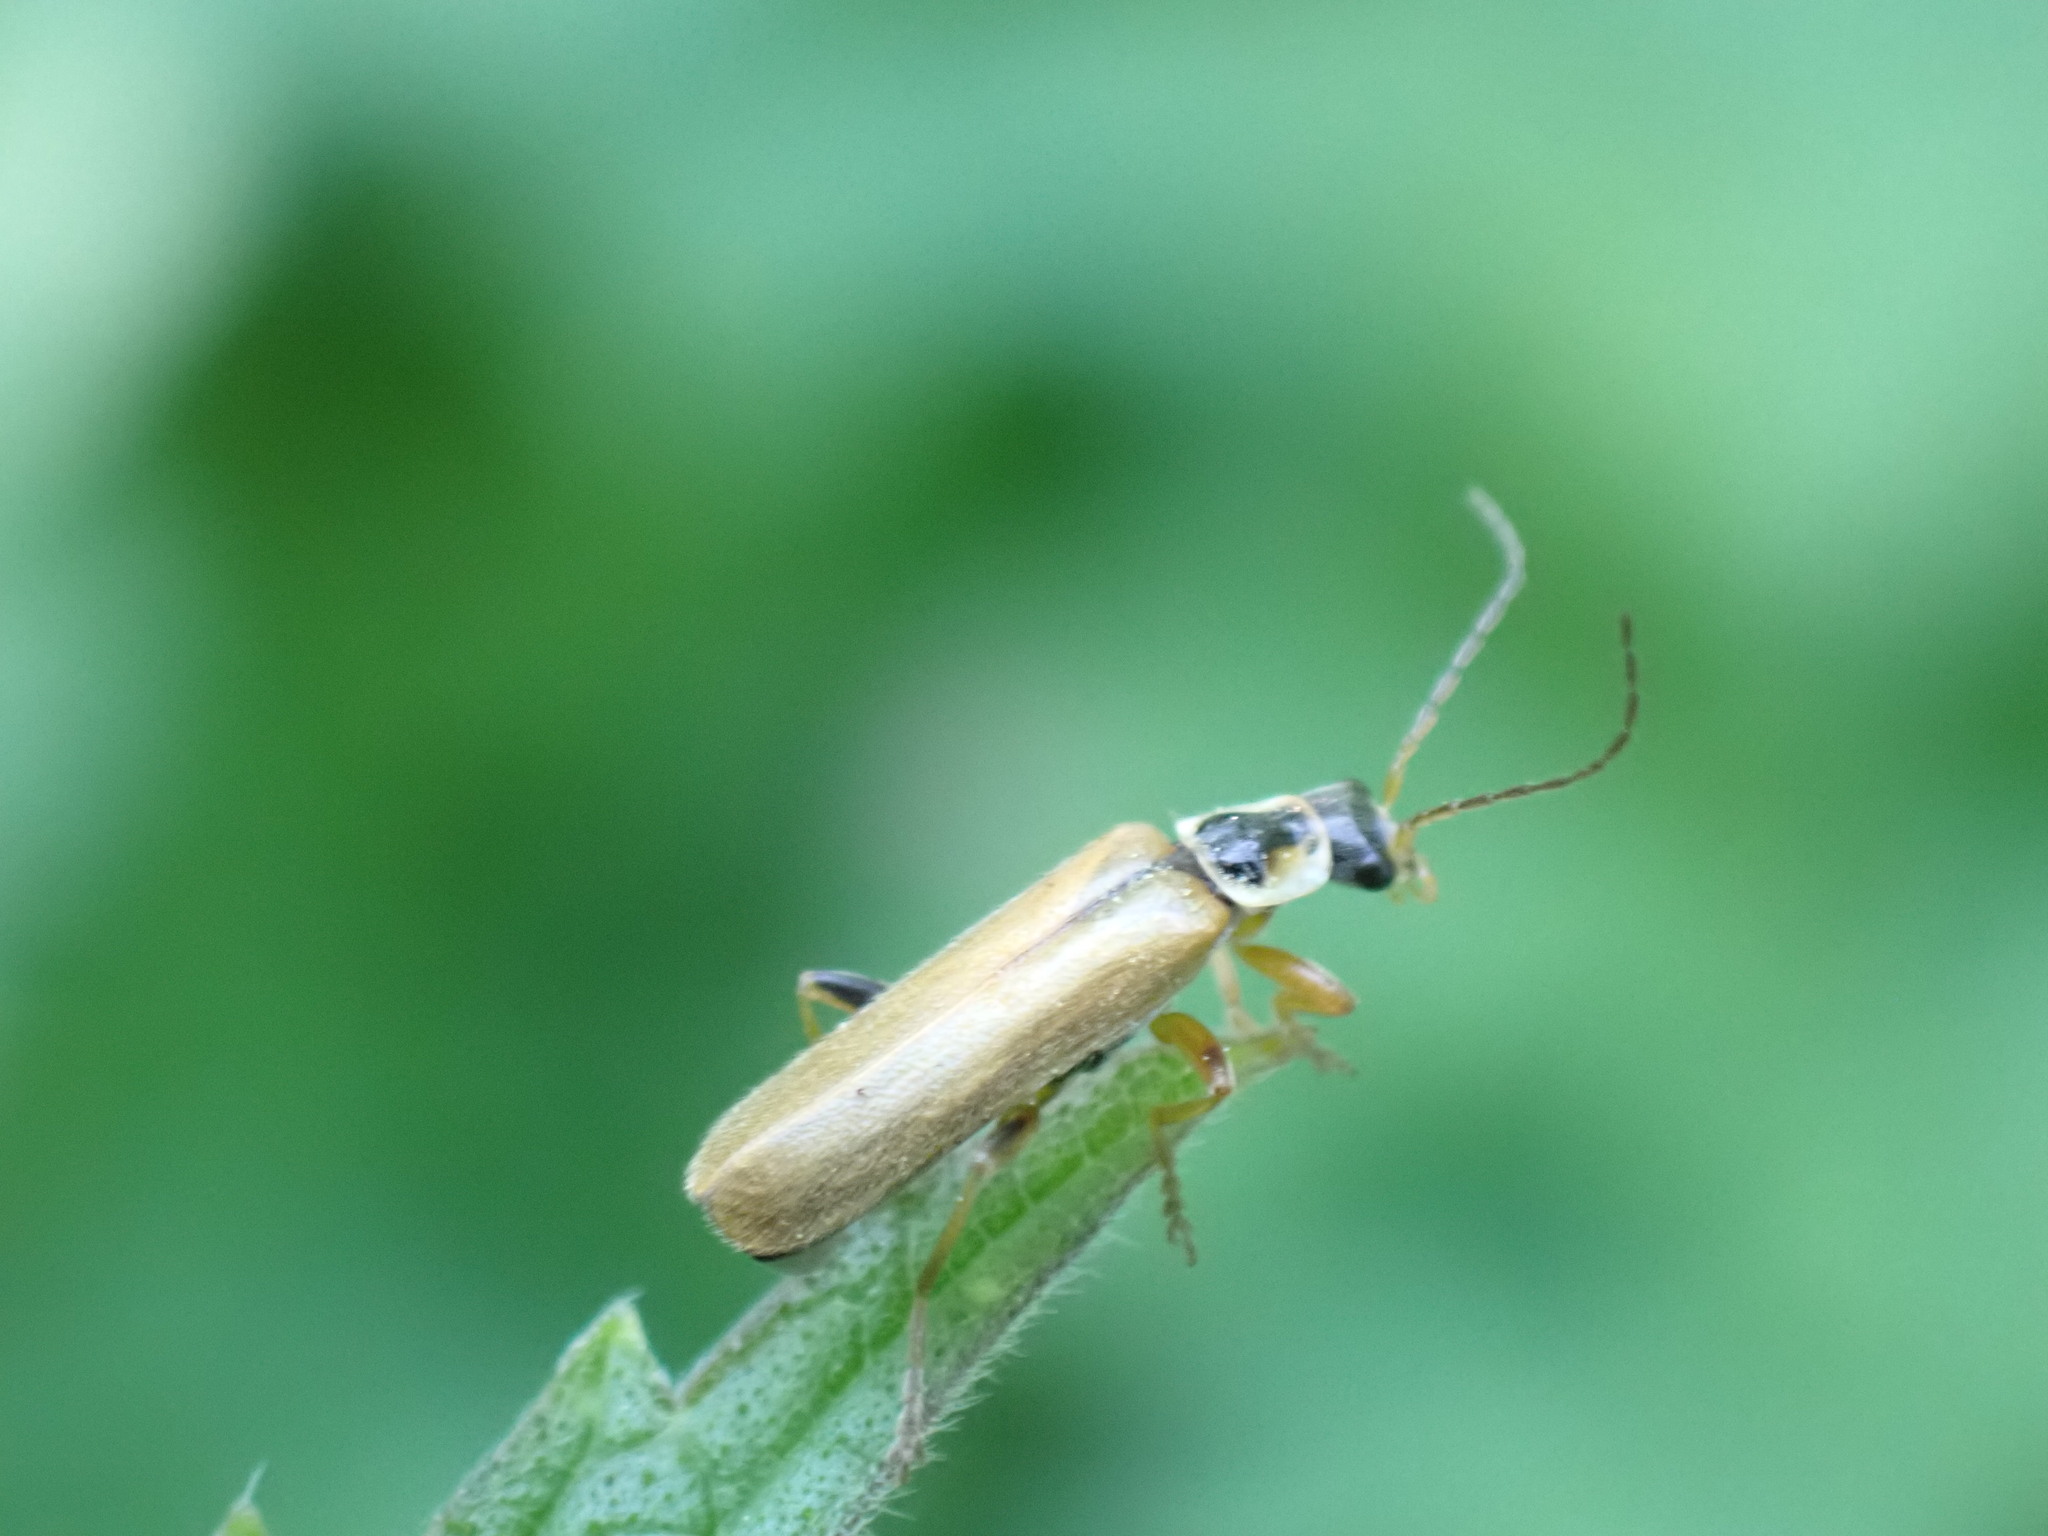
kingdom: Animalia
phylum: Arthropoda
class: Insecta
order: Coleoptera
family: Cantharidae
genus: Cantharis
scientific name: Cantharis decipiens
